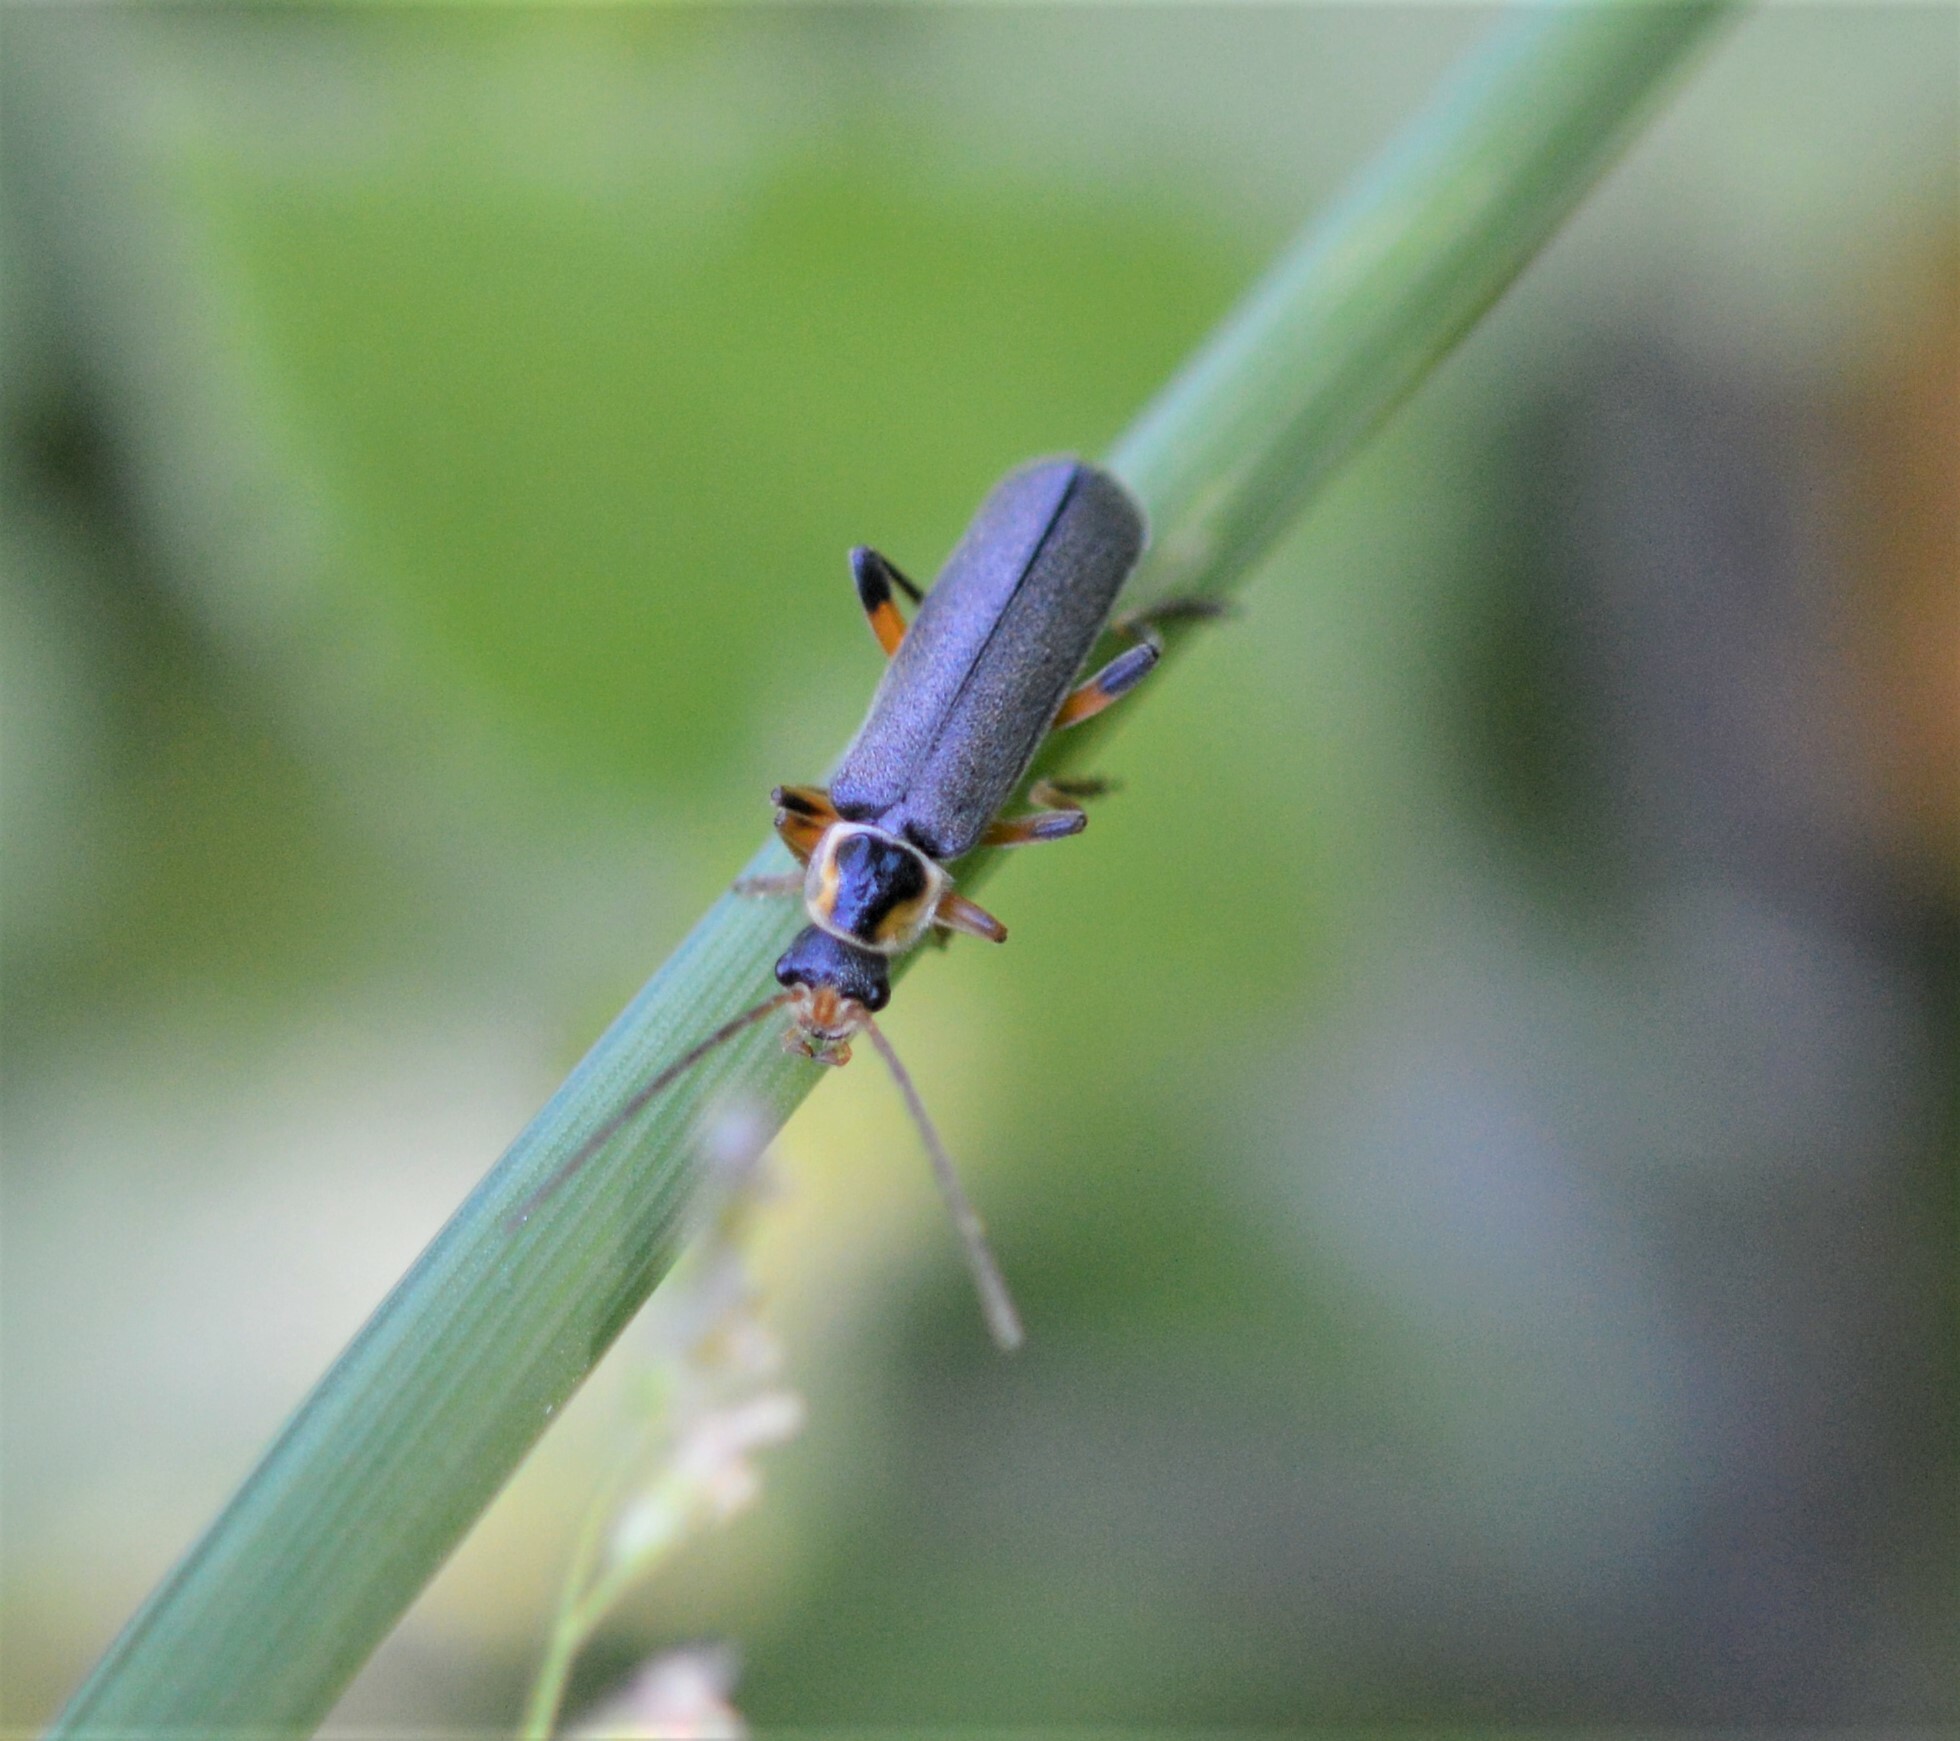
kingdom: Animalia
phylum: Arthropoda
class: Insecta
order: Coleoptera
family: Cantharidae
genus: Cantharis
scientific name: Cantharis nigricans
